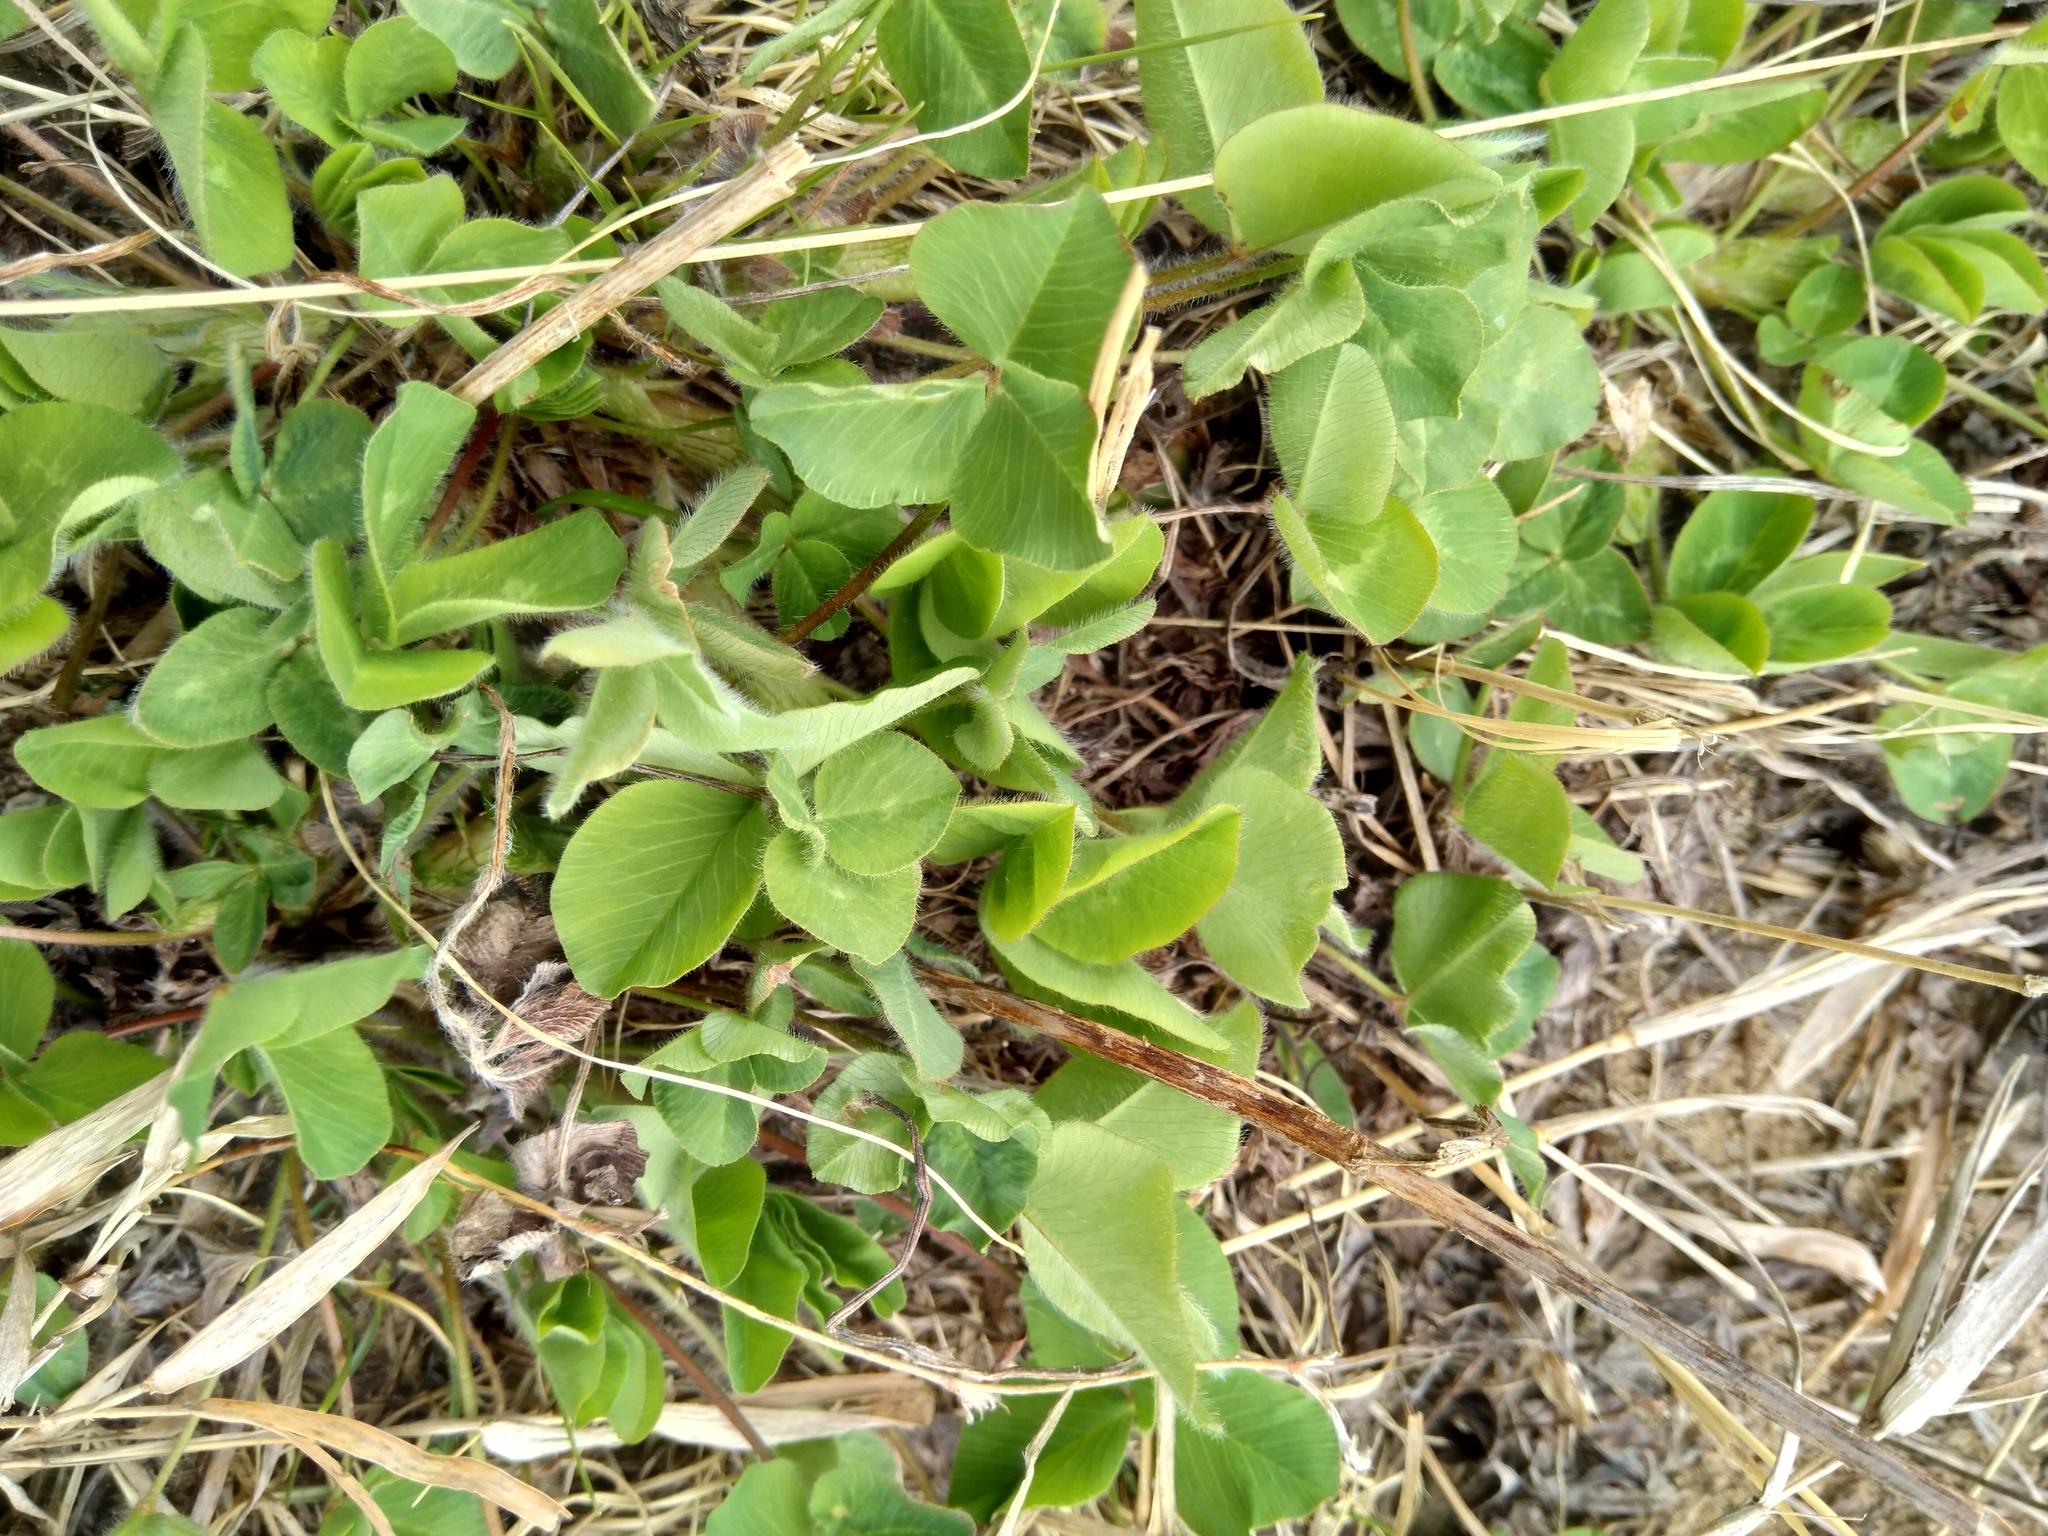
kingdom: Plantae
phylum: Tracheophyta
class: Magnoliopsida
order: Fabales
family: Fabaceae
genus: Trifolium
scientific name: Trifolium pratense
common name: Red clover
